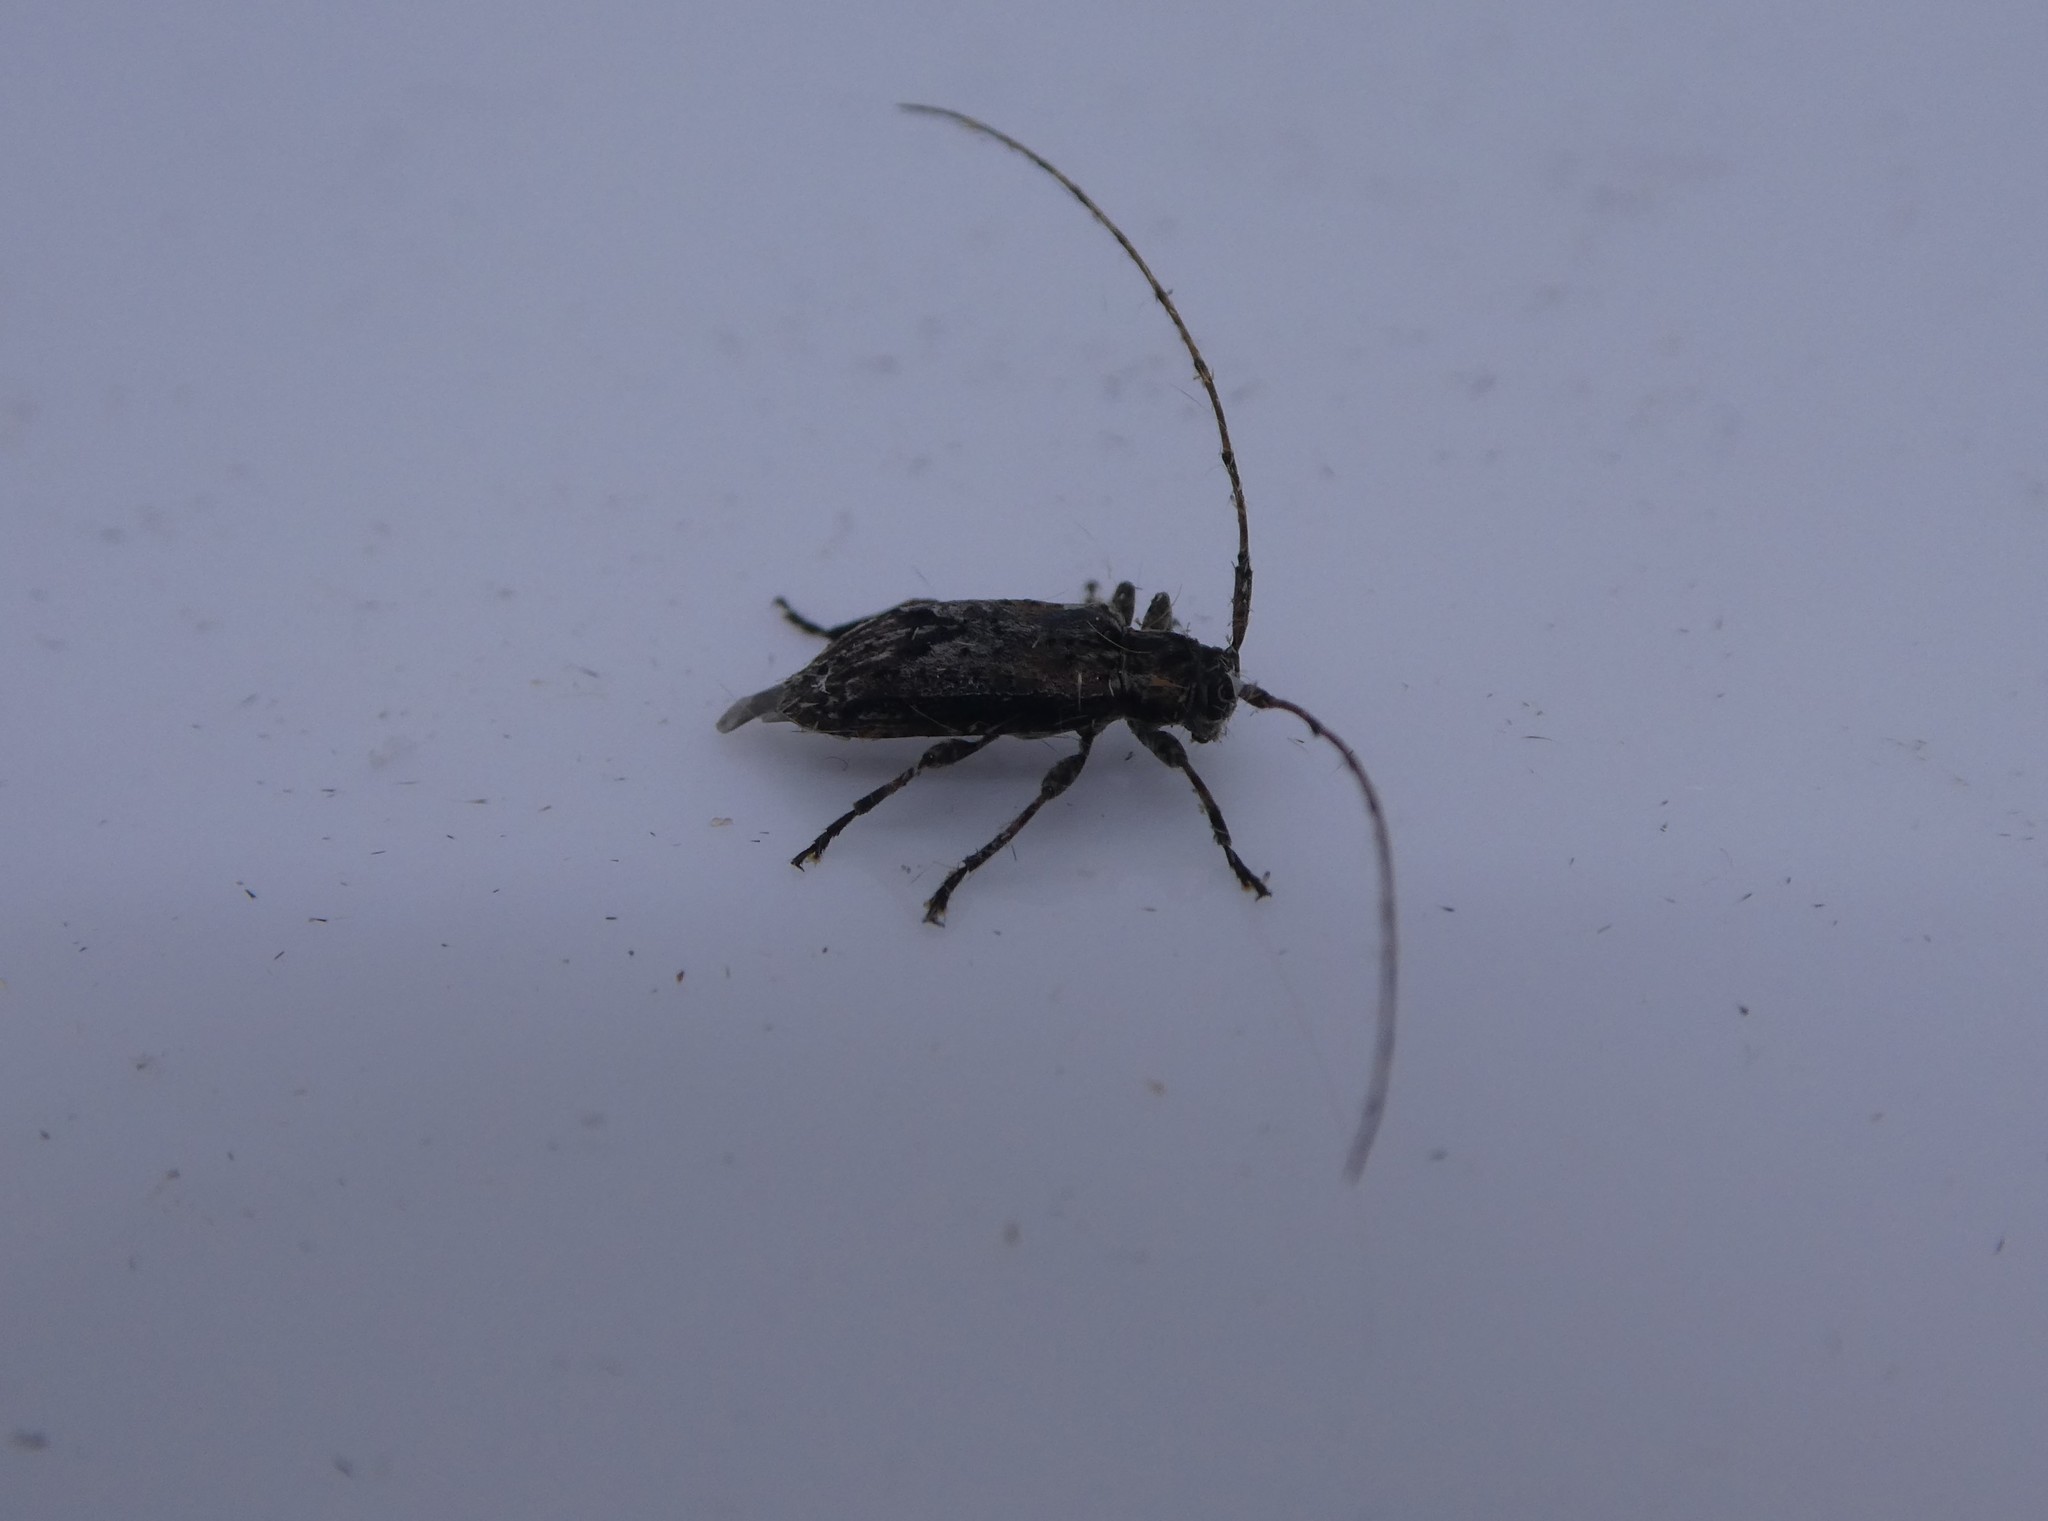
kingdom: Animalia
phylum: Arthropoda
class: Insecta
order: Coleoptera
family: Cerambycidae
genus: Sternidius
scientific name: Sternidius alpha
